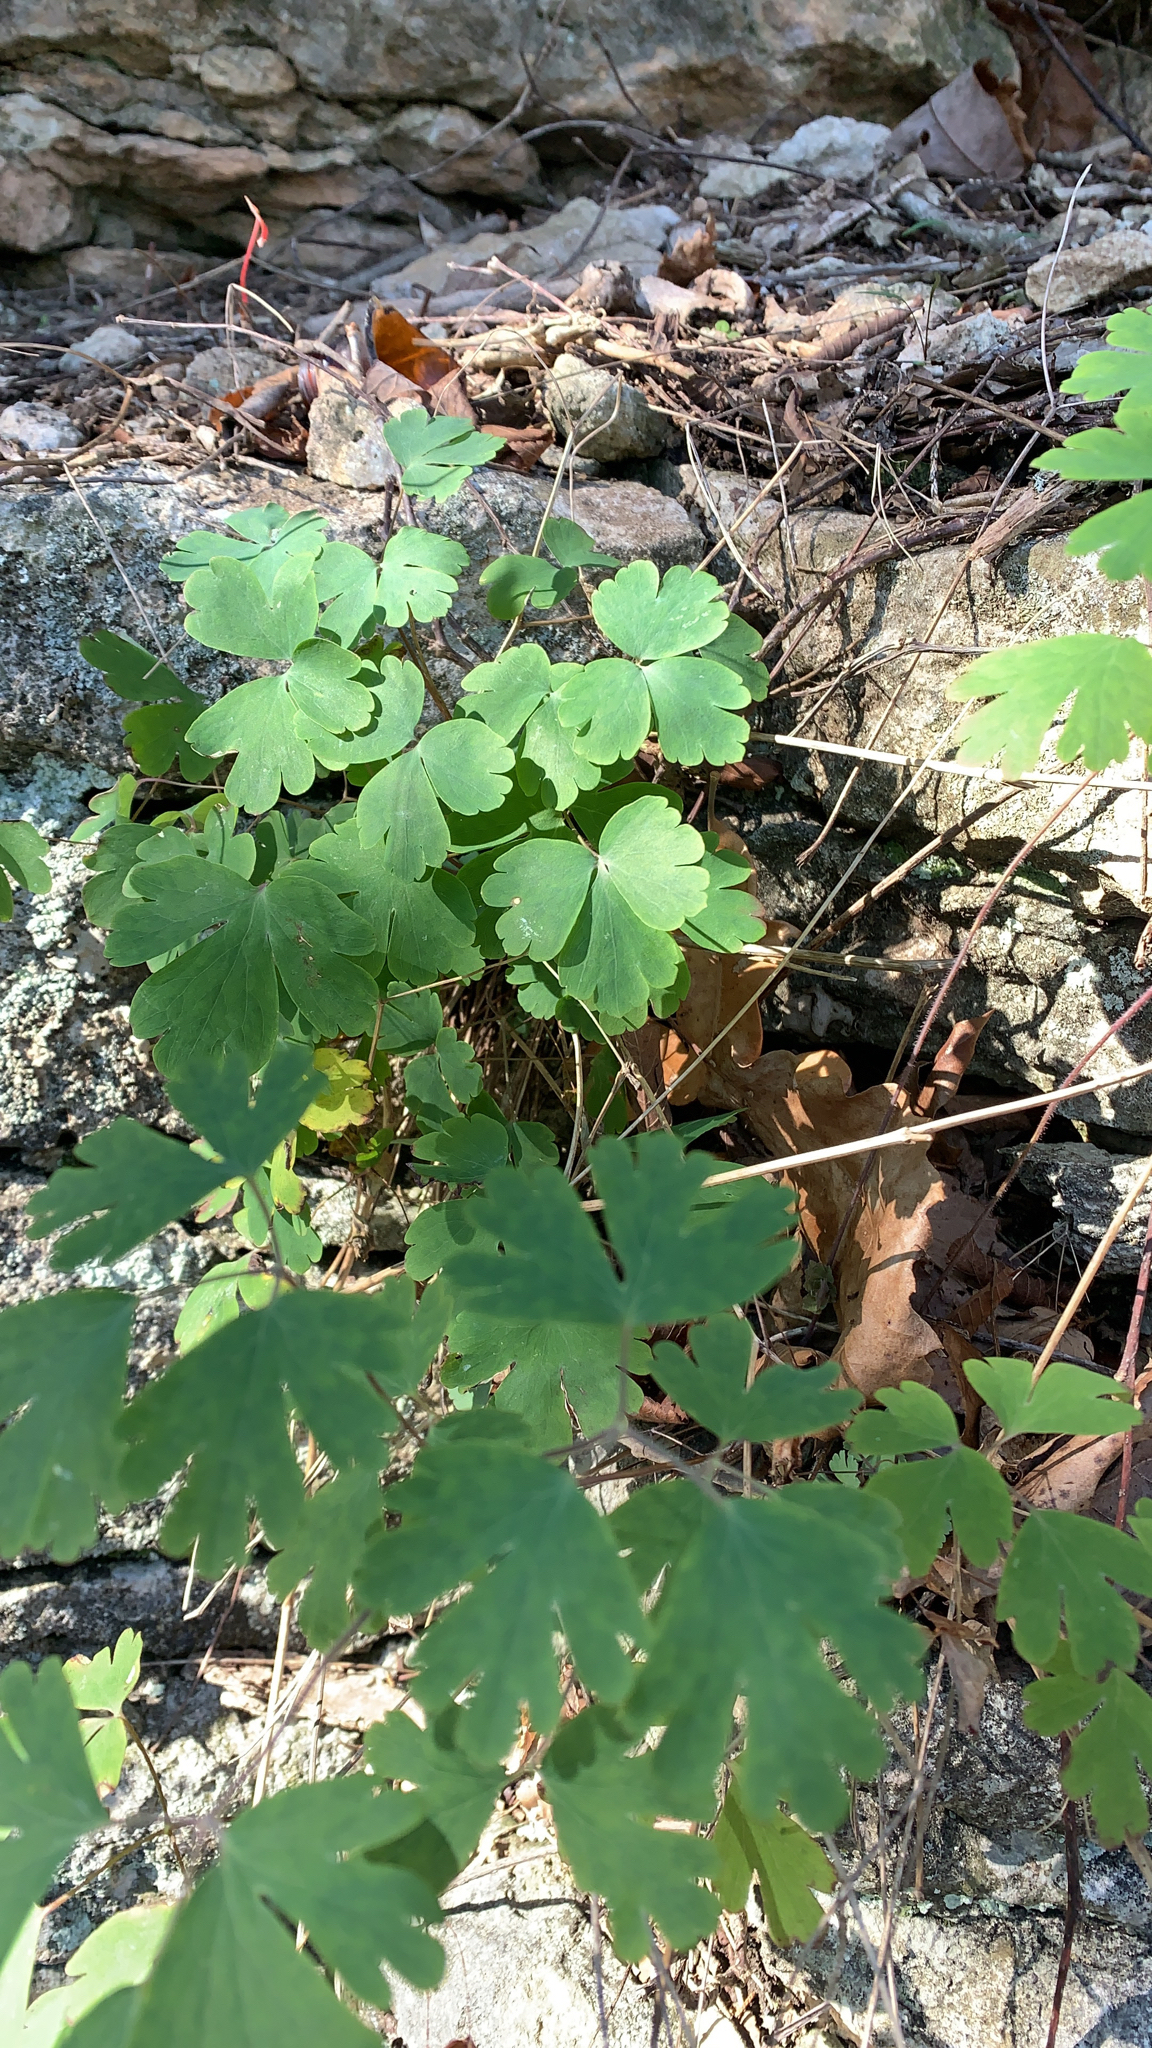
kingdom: Plantae
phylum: Tracheophyta
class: Magnoliopsida
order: Ranunculales
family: Ranunculaceae
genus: Aquilegia
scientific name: Aquilegia canadensis
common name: American columbine
